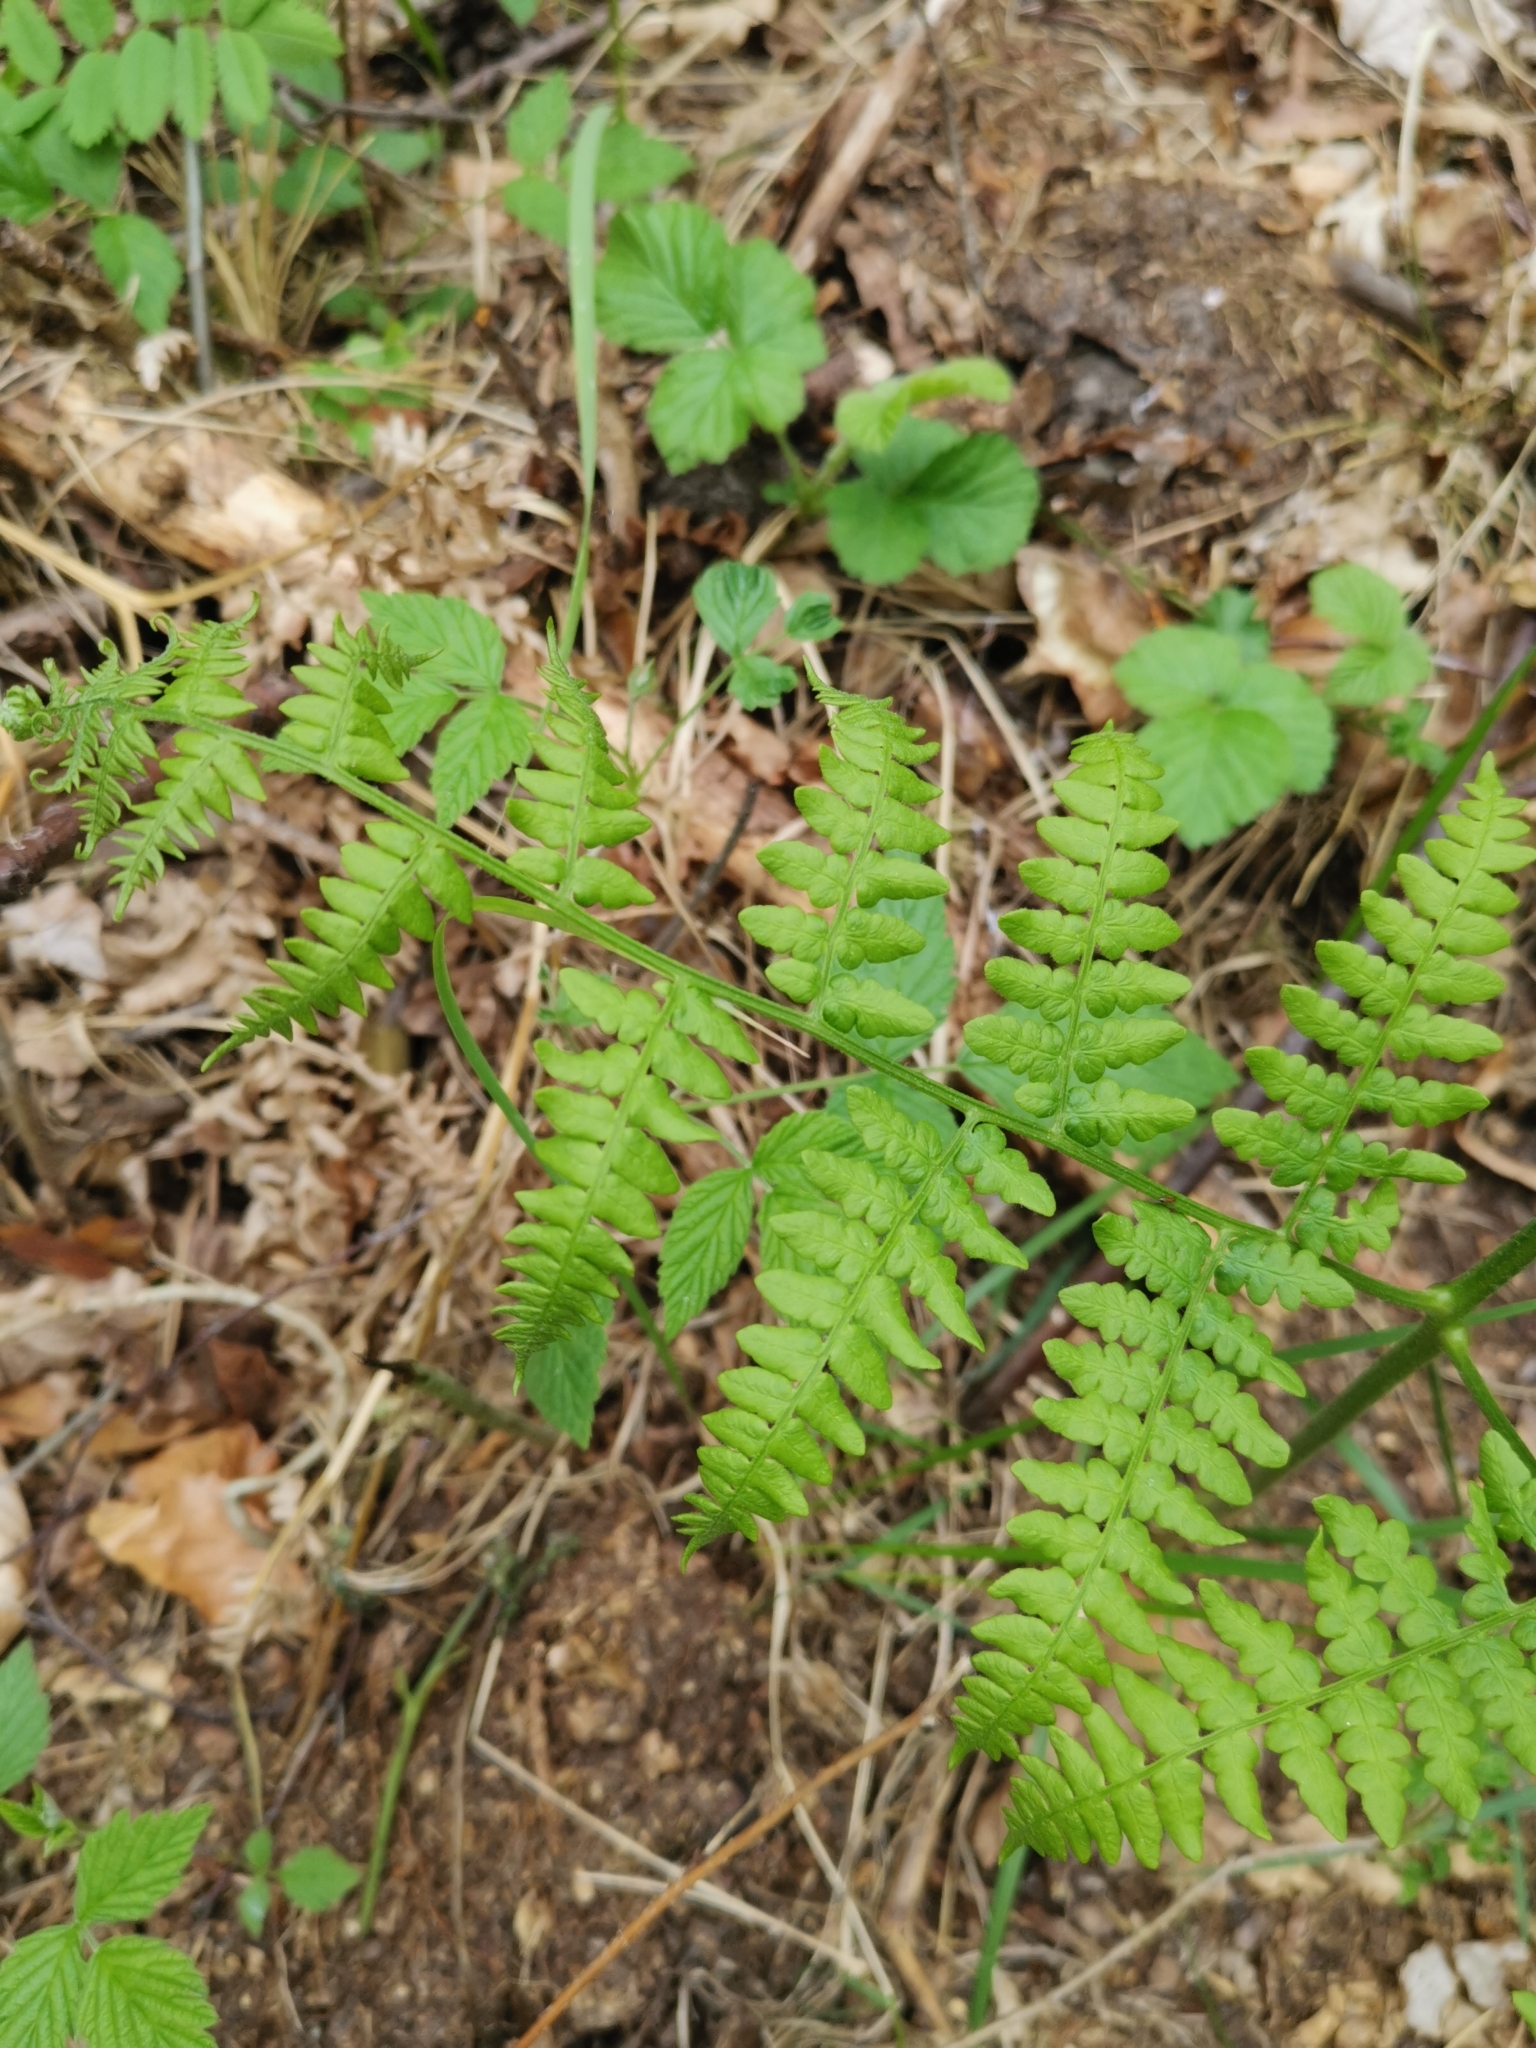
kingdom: Plantae
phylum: Tracheophyta
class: Polypodiopsida
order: Polypodiales
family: Dennstaedtiaceae
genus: Pteridium
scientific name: Pteridium aquilinum
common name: Bracken
